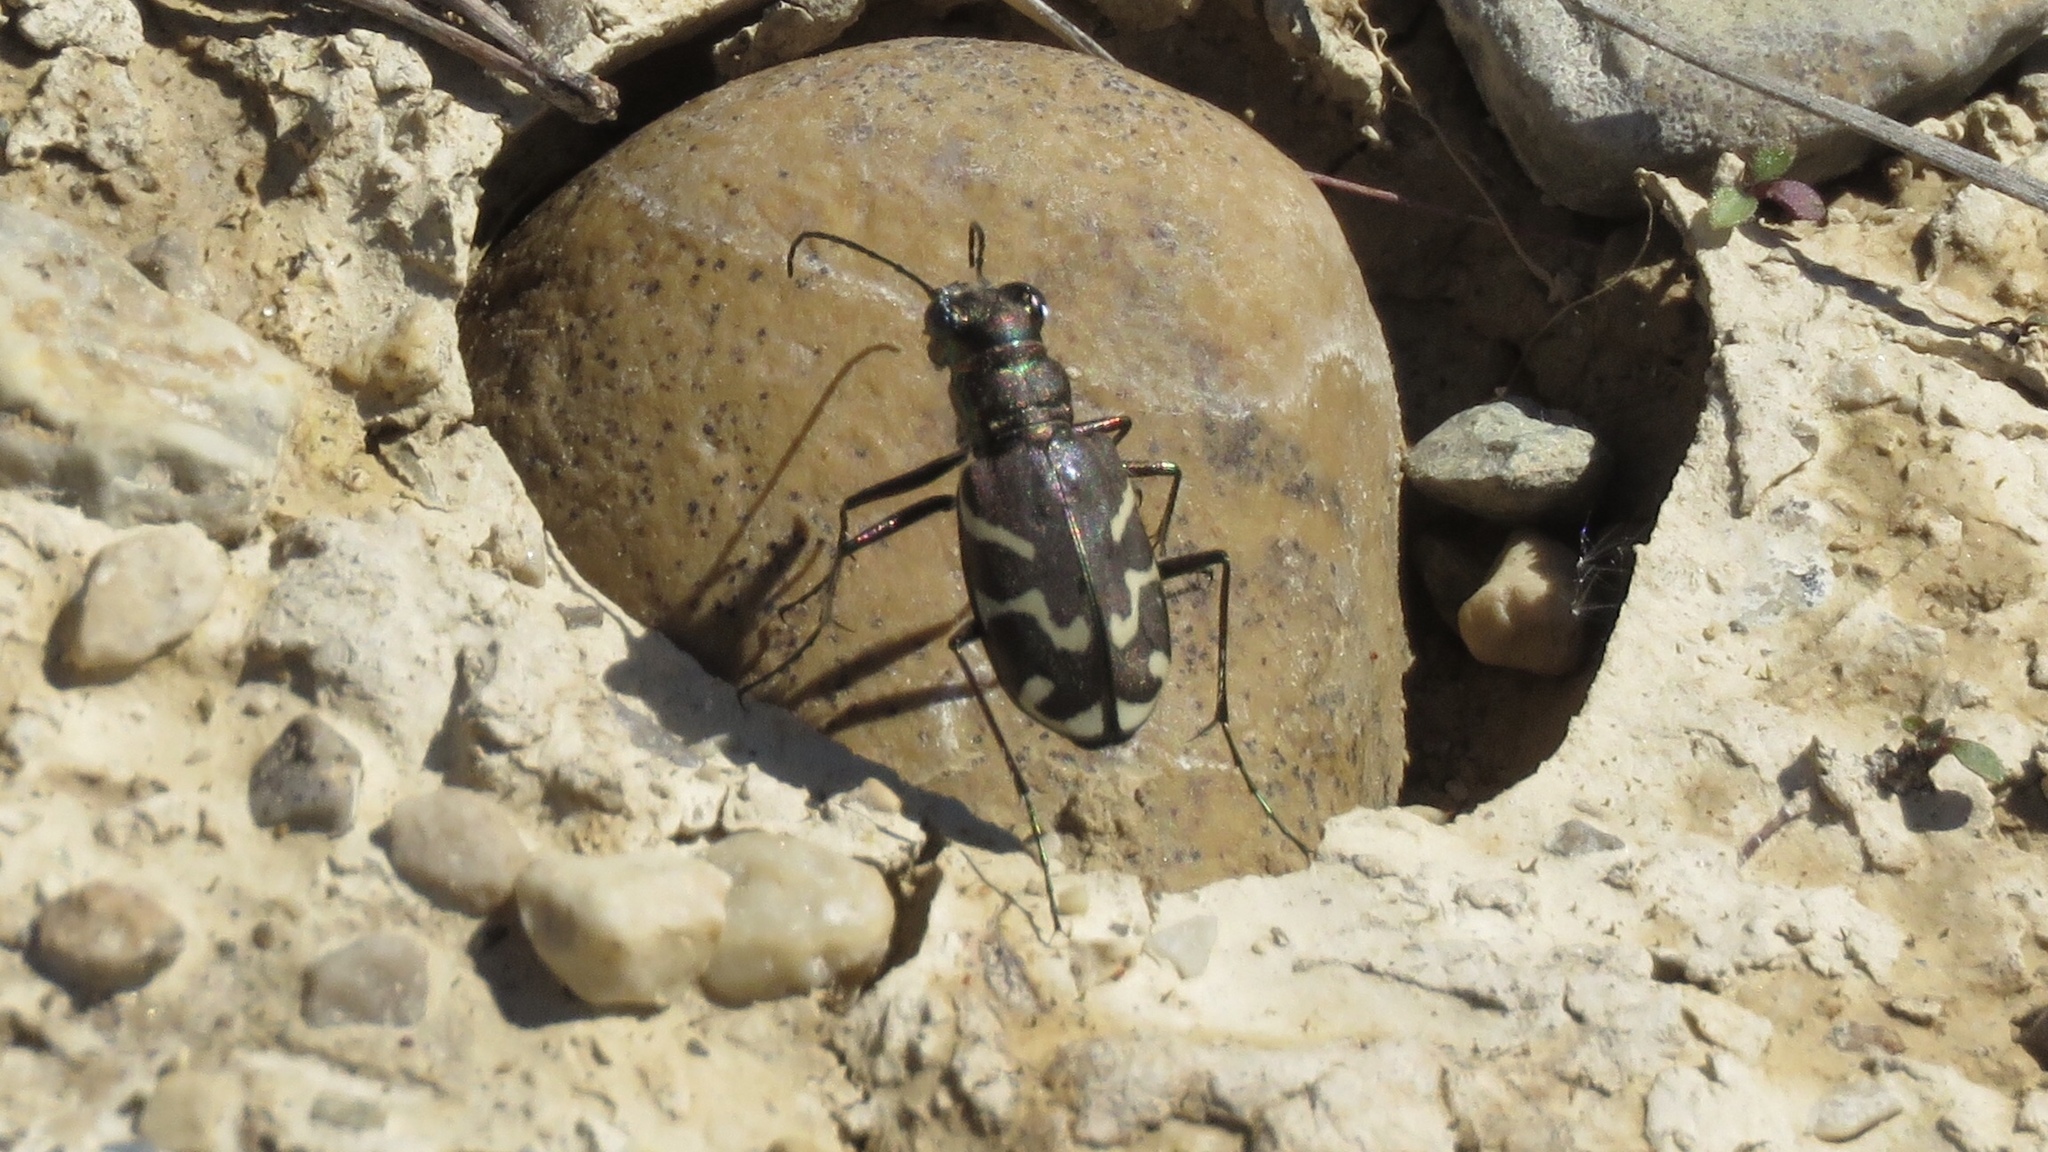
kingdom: Animalia
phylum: Arthropoda
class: Insecta
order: Coleoptera
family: Carabidae
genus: Cicindela
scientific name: Cicindela tranquebarica
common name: Oblique-lined tiger beetle
